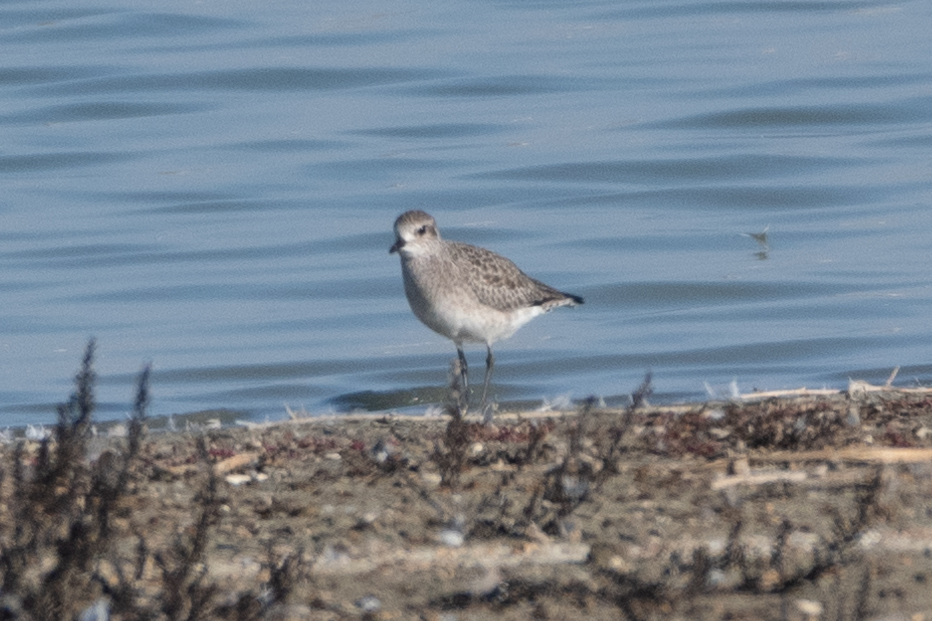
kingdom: Animalia
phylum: Chordata
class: Aves
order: Charadriiformes
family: Charadriidae
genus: Pluvialis
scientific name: Pluvialis squatarola
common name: Grey plover
